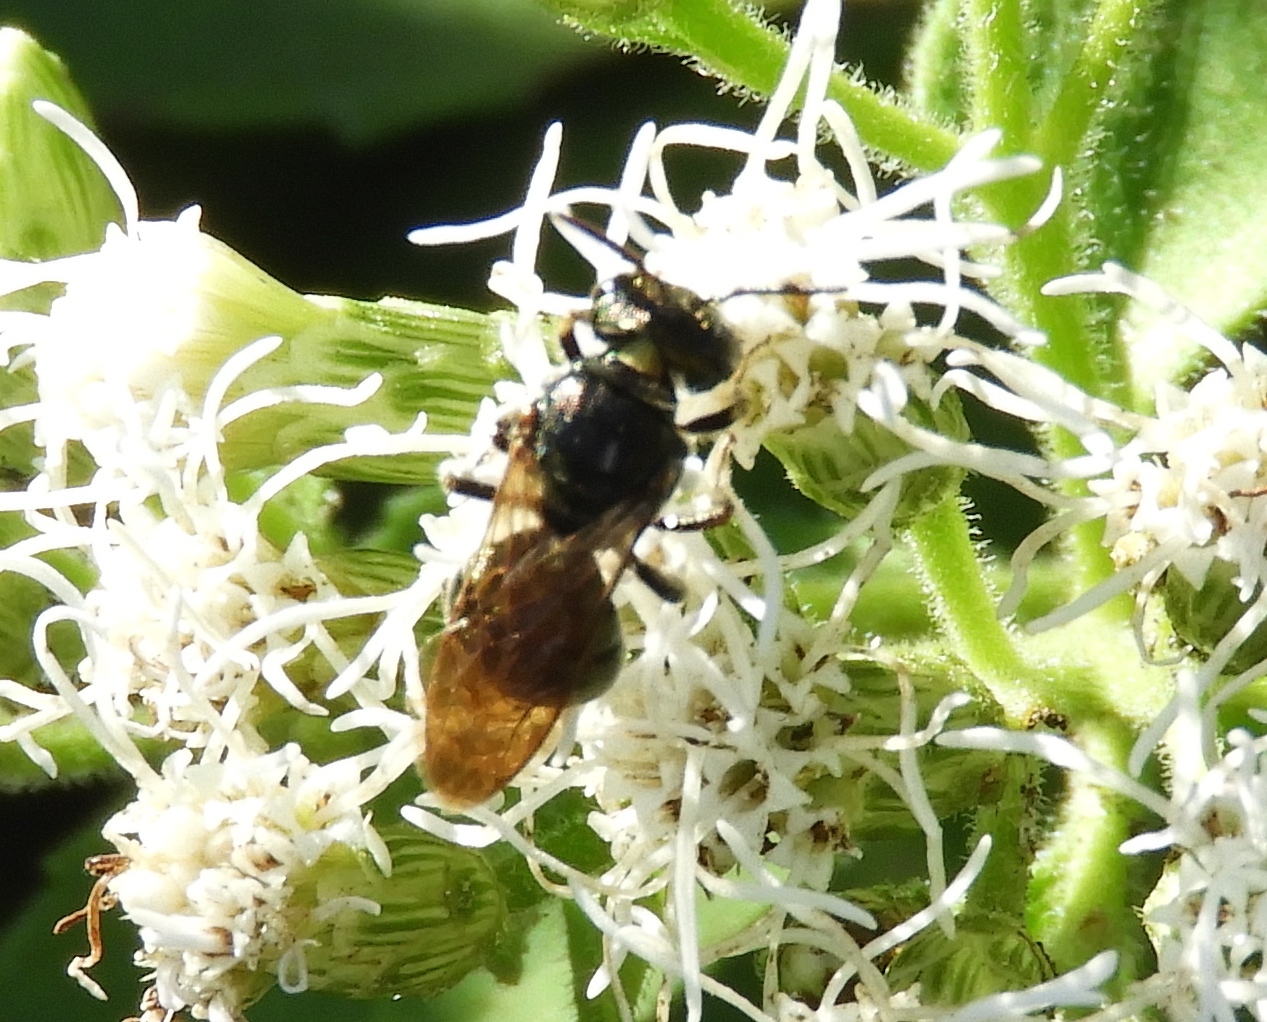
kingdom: Animalia
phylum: Arthropoda
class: Insecta
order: Hymenoptera
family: Apidae
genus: Ceratina
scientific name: Ceratina
